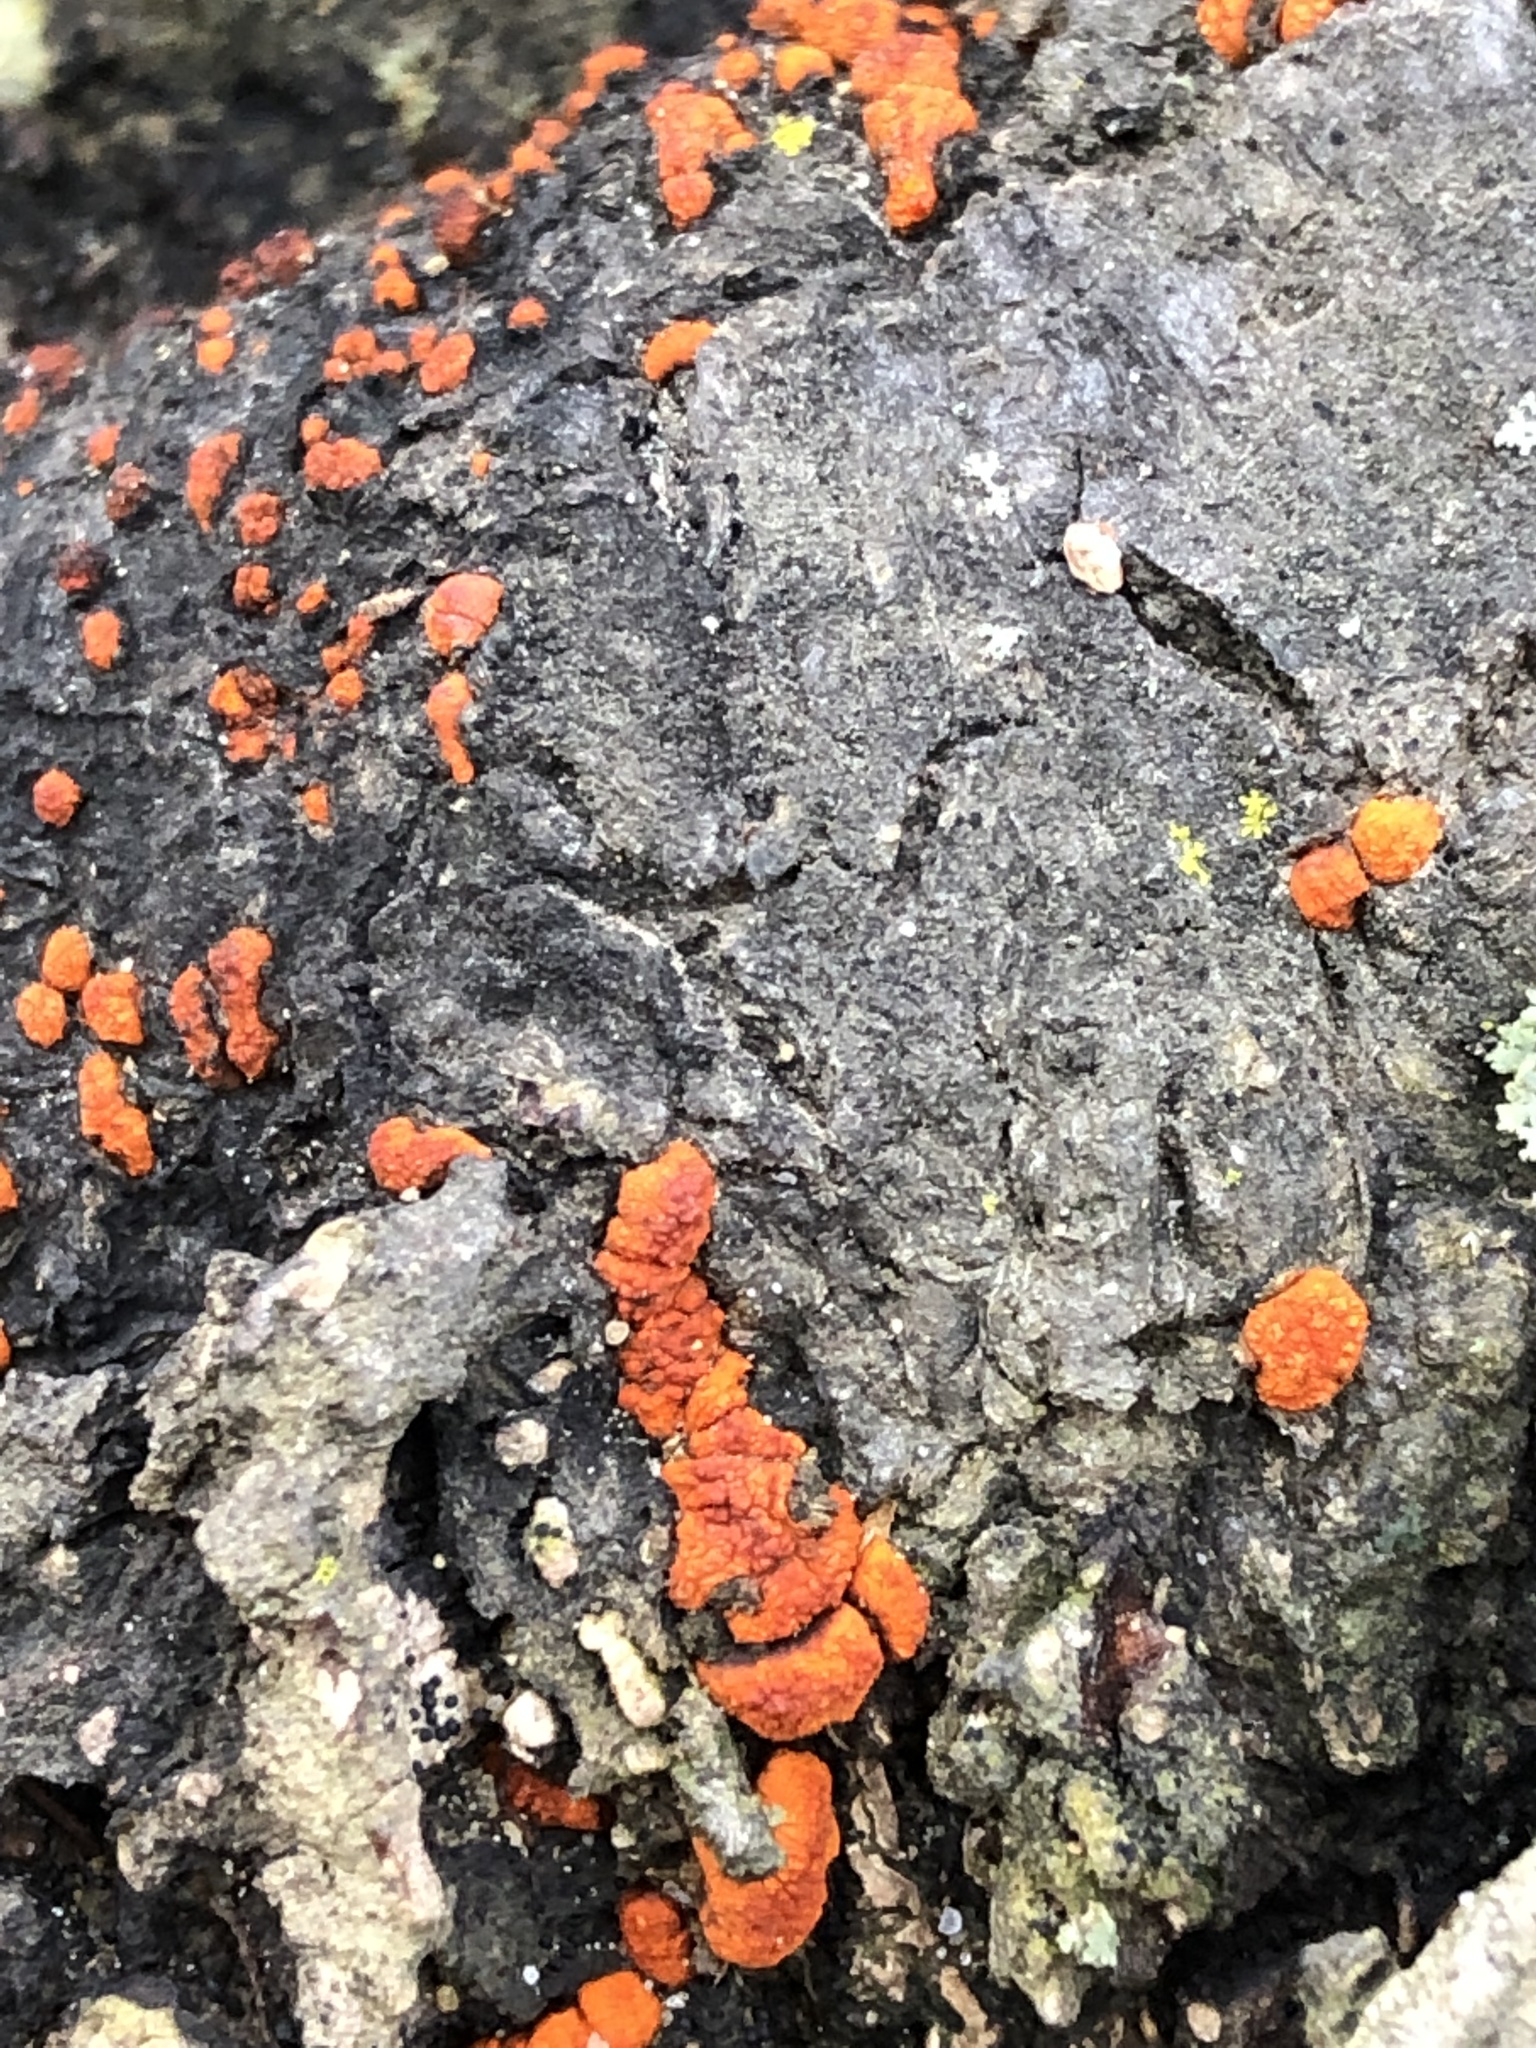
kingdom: Fungi
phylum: Ascomycota
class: Sordariomycetes
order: Diaporthales
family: Cryphonectriaceae
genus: Amphilogia
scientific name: Amphilogia gyrosa
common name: Orange hobnail canker
